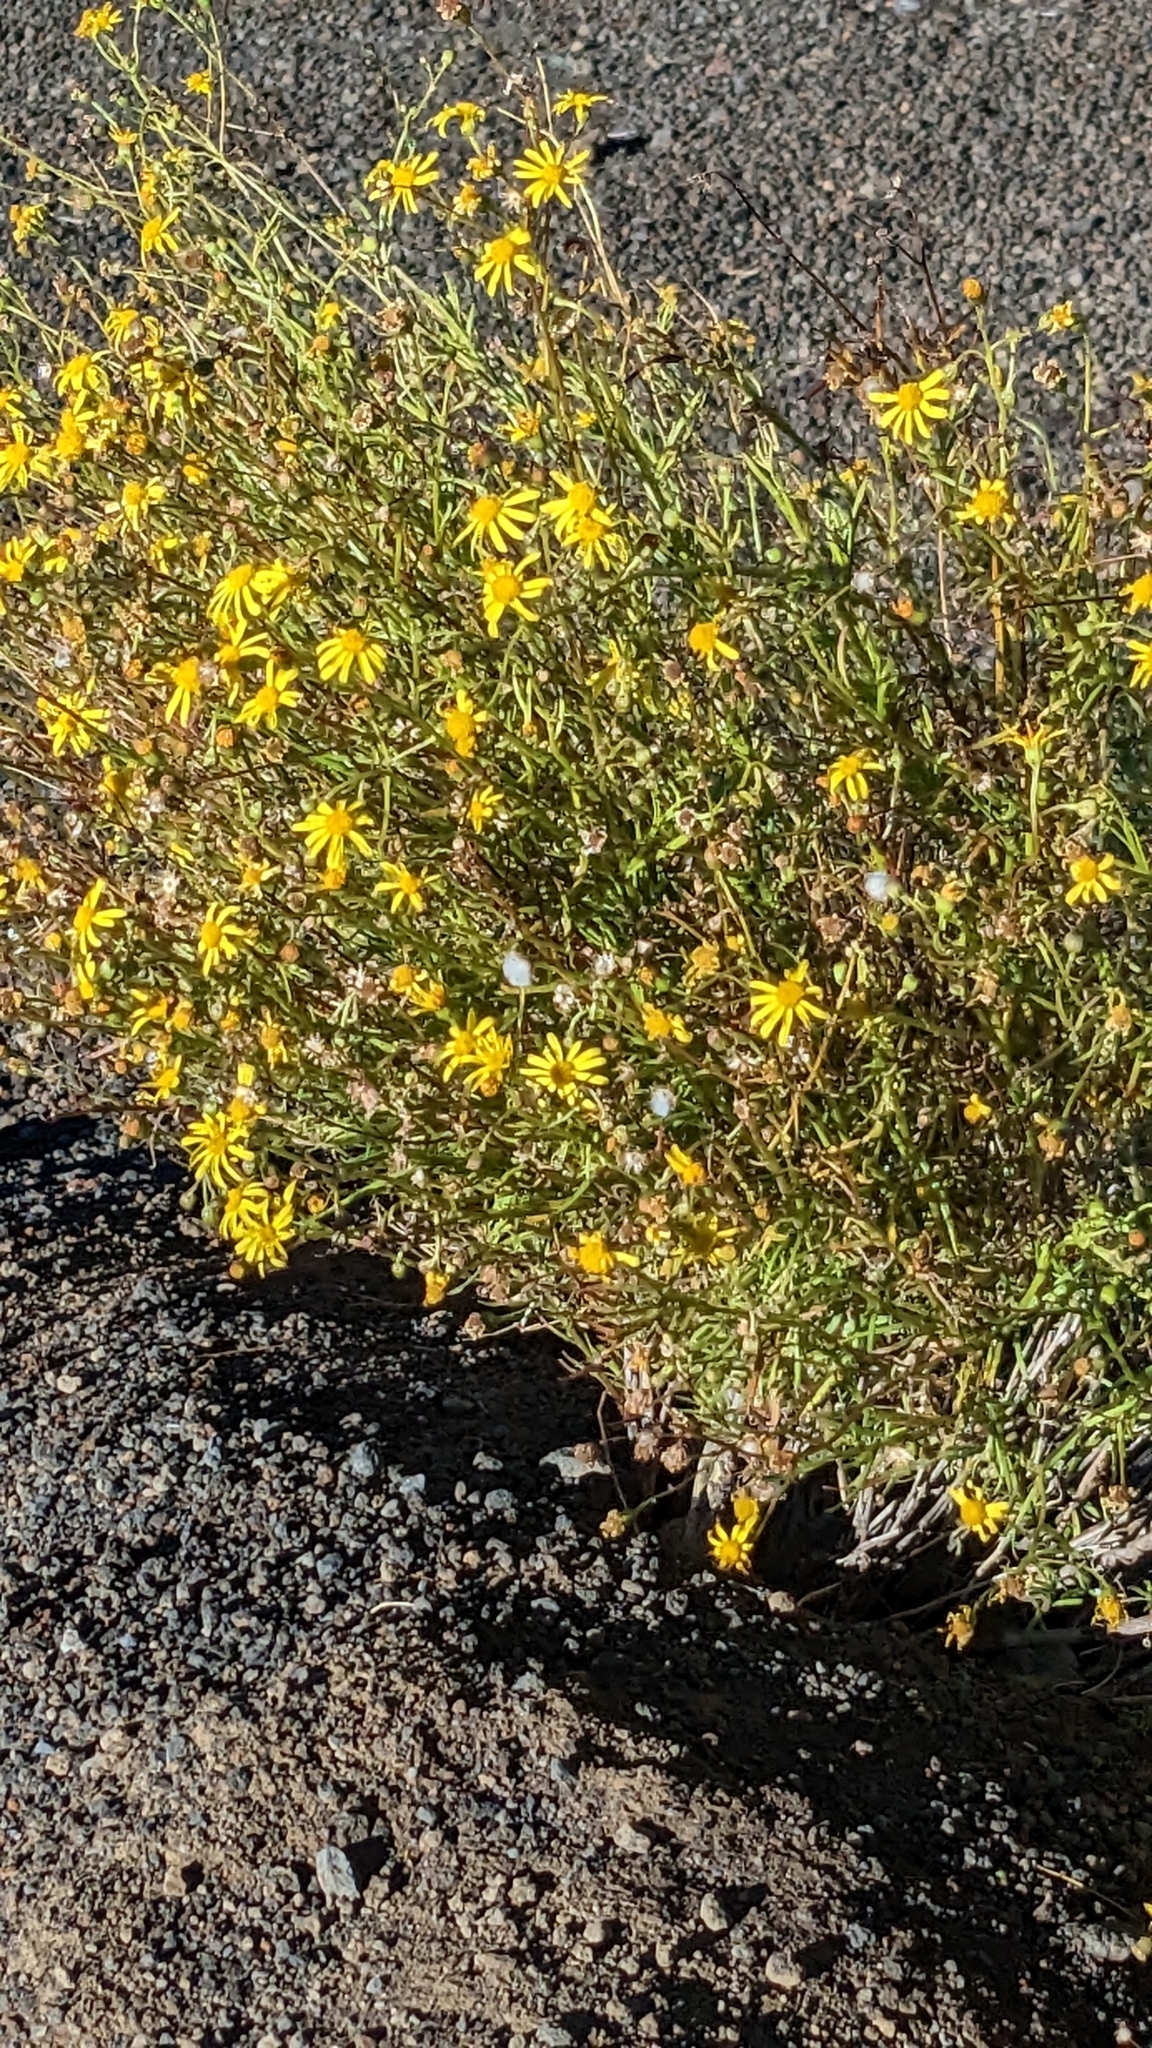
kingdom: Plantae
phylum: Tracheophyta
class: Magnoliopsida
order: Asterales
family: Asteraceae
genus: Senecio
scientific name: Senecio madagascariensis
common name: Madagascar ragwort
